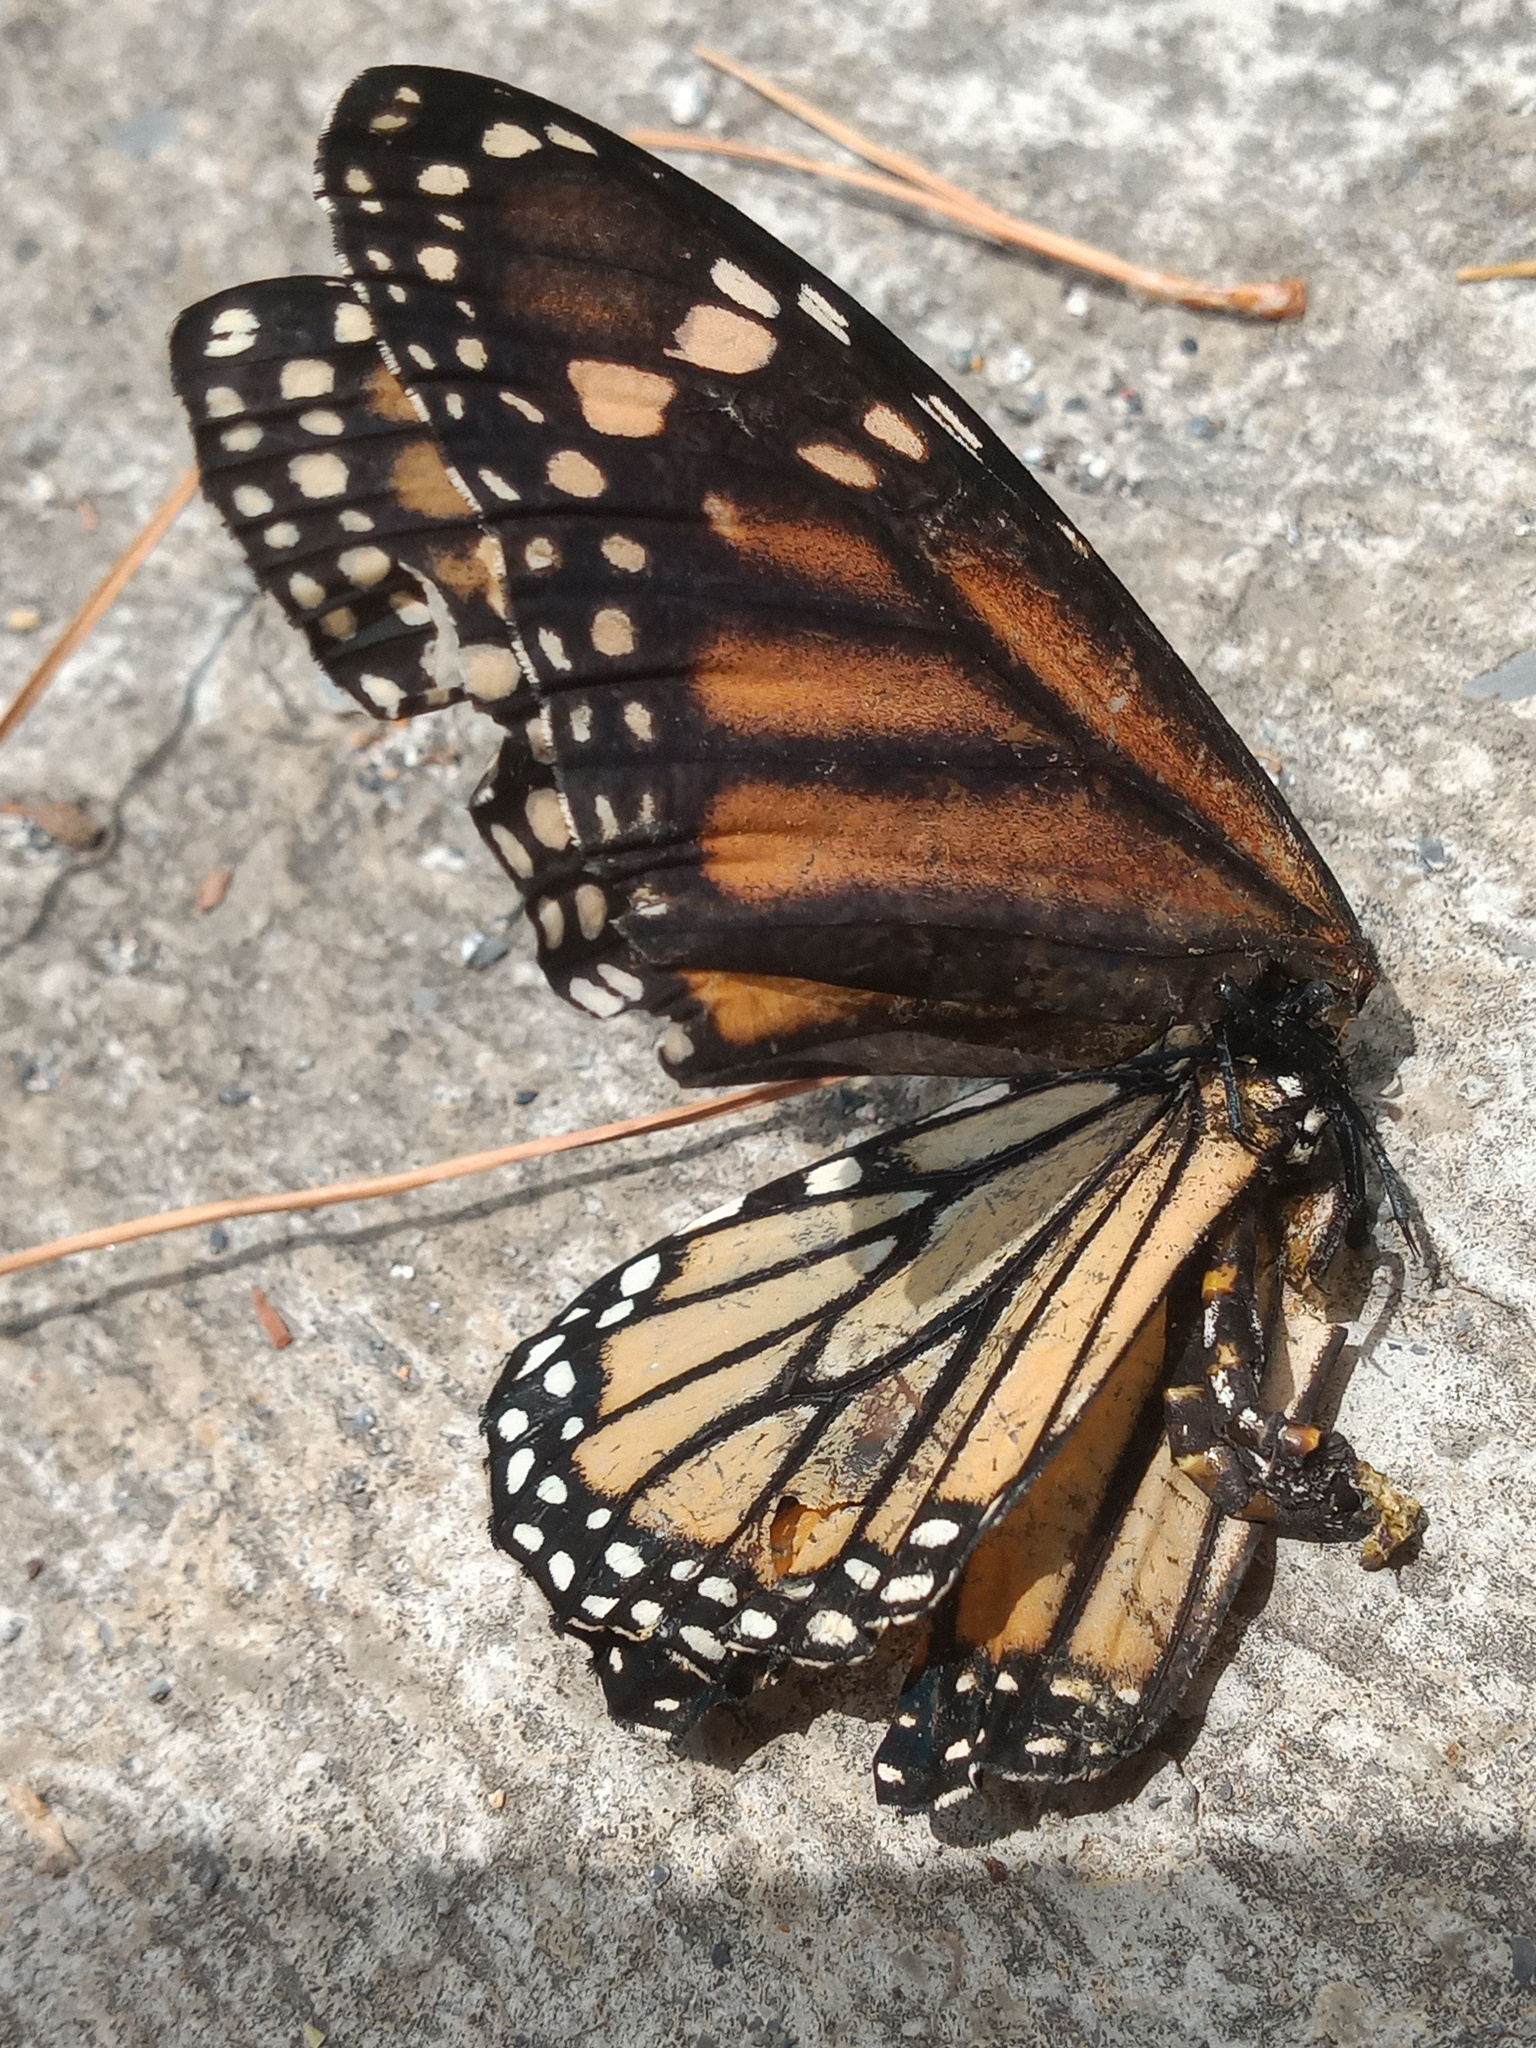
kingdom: Animalia
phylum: Arthropoda
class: Insecta
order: Lepidoptera
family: Nymphalidae
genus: Danaus
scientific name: Danaus plexippus
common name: Monarch
